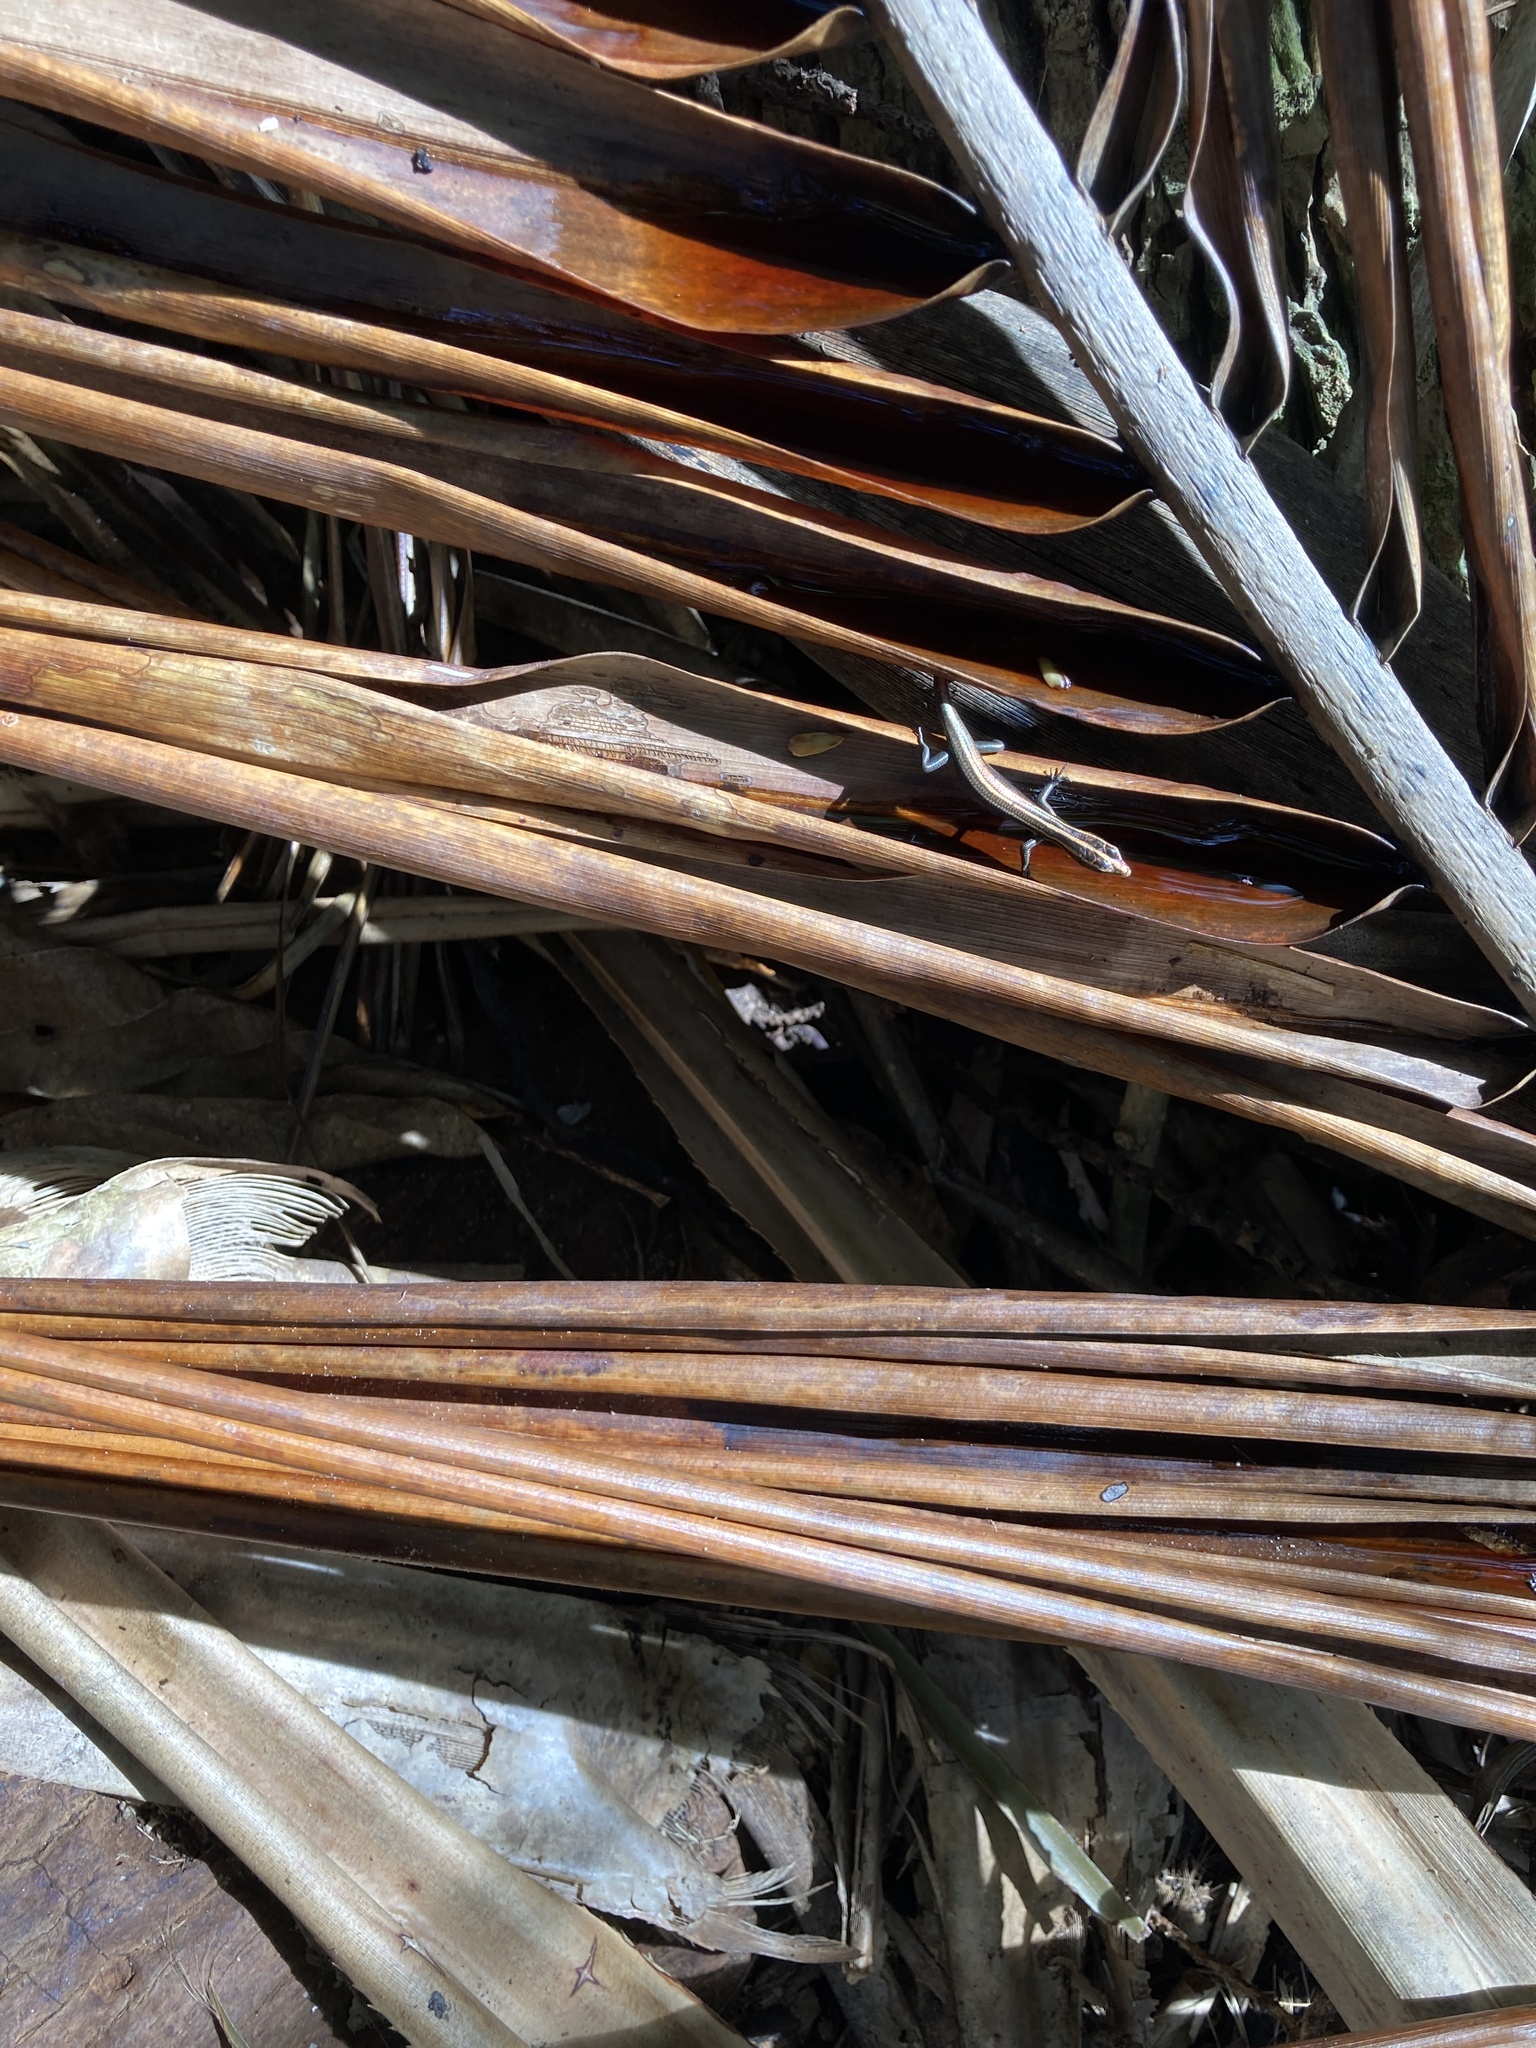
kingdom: Animalia
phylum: Chordata
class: Squamata
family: Scincidae
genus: Emoia
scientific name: Emoia impar
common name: Azure-tailed skink
